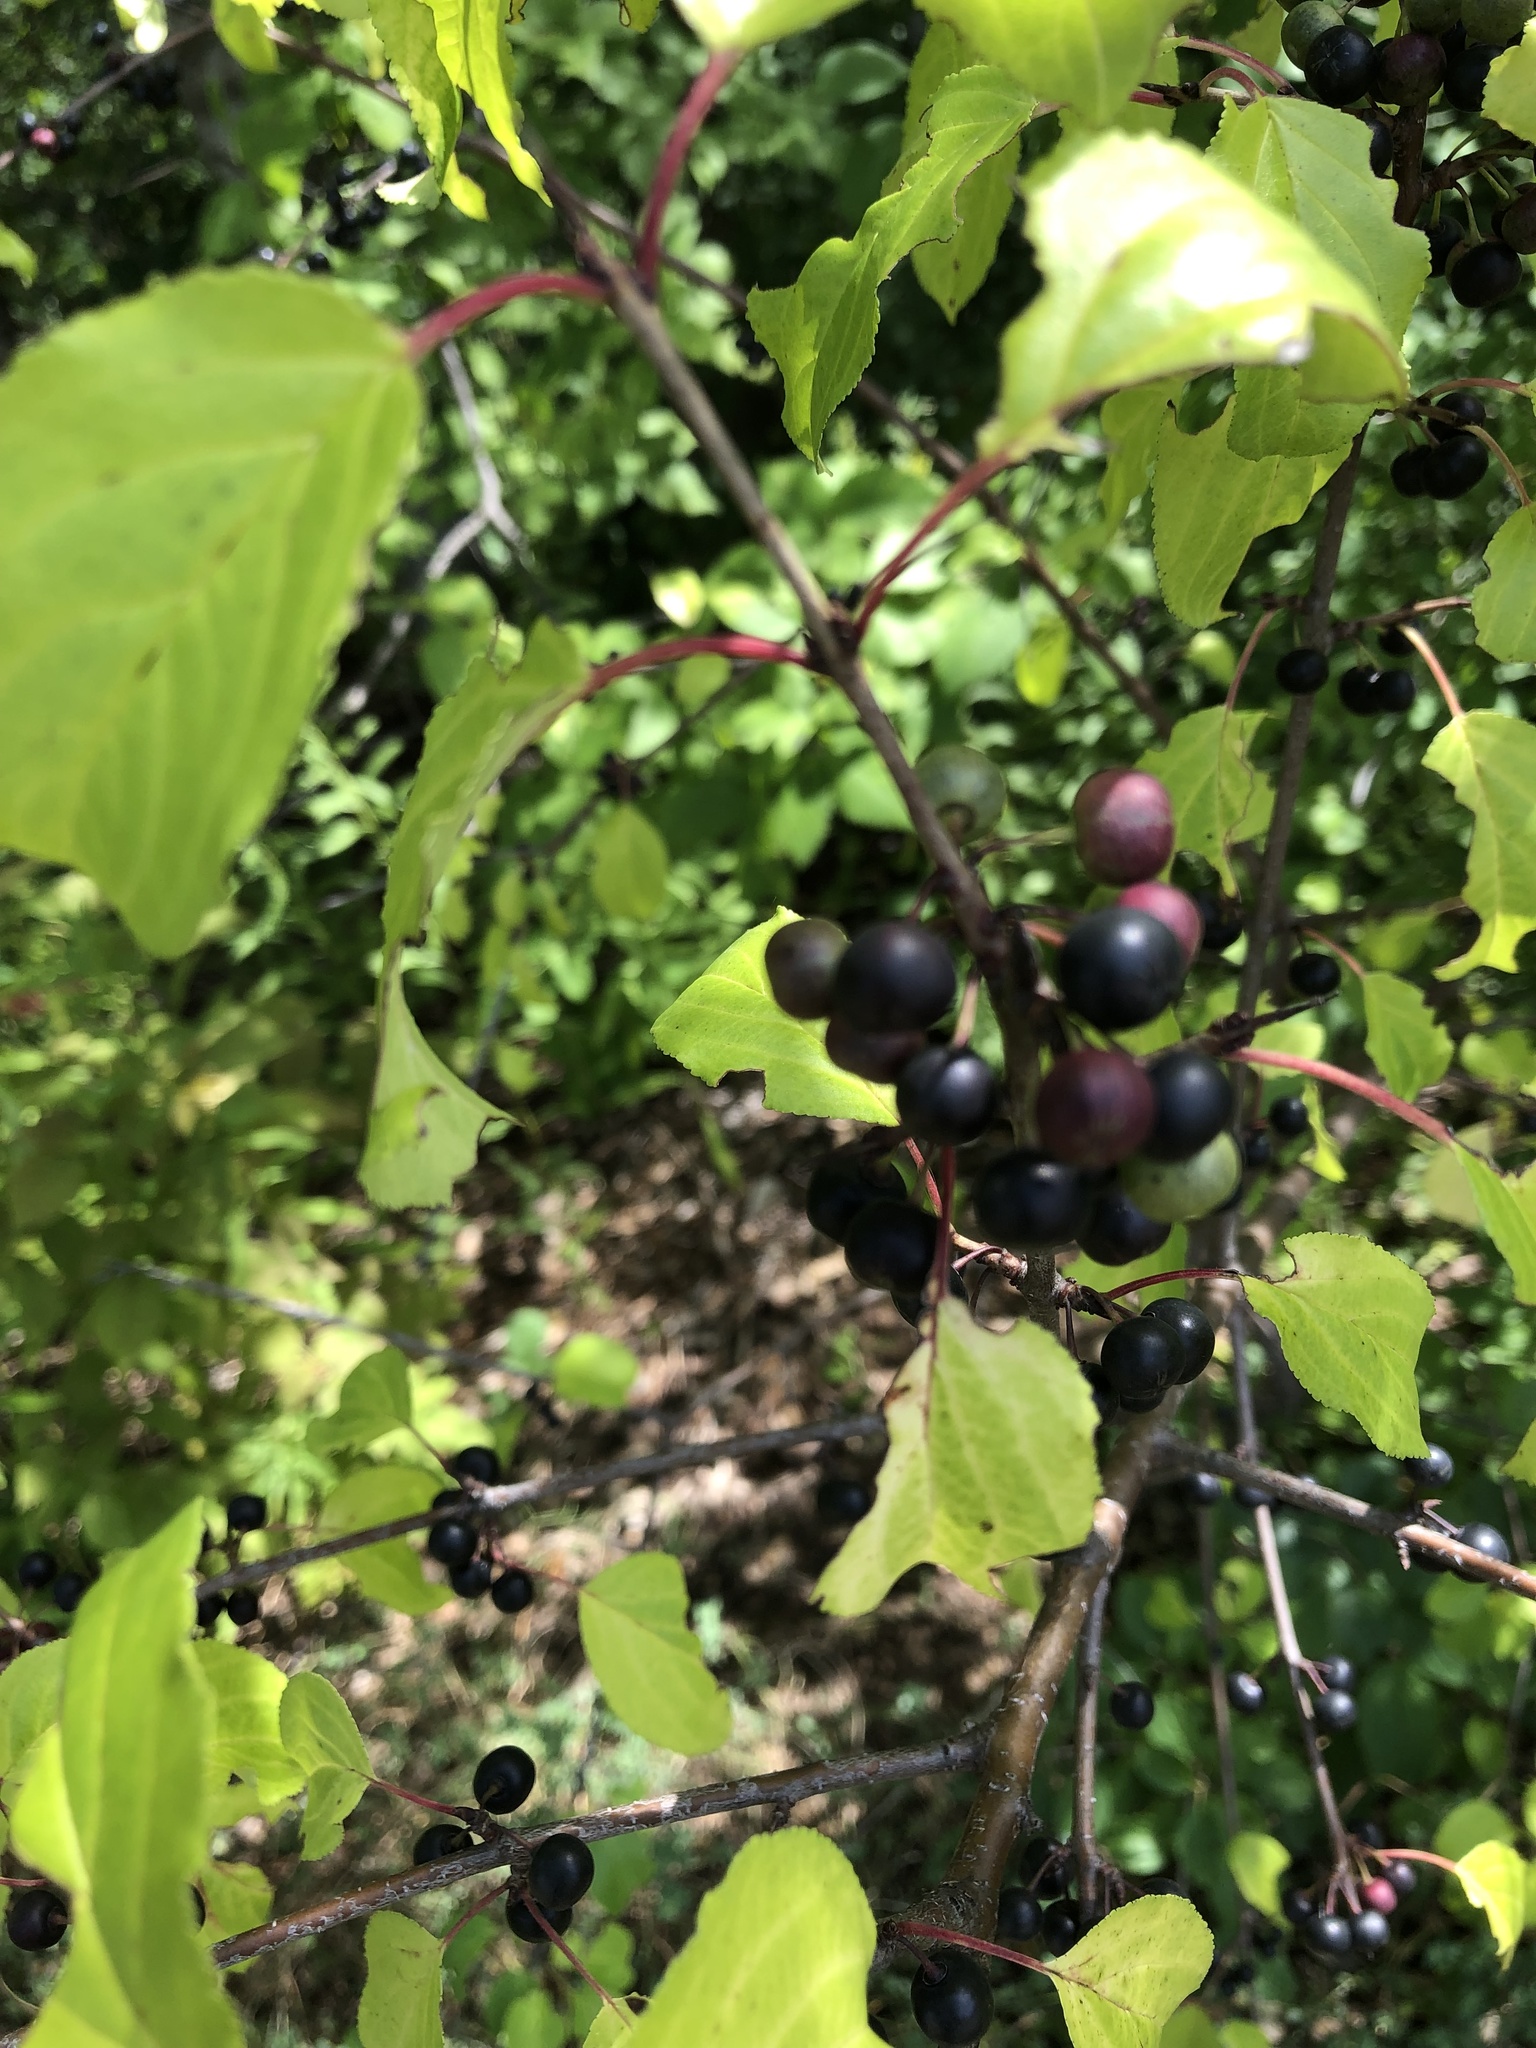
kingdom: Plantae
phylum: Tracheophyta
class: Magnoliopsida
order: Rosales
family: Rhamnaceae
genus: Rhamnus
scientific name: Rhamnus cathartica
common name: Common buckthorn
